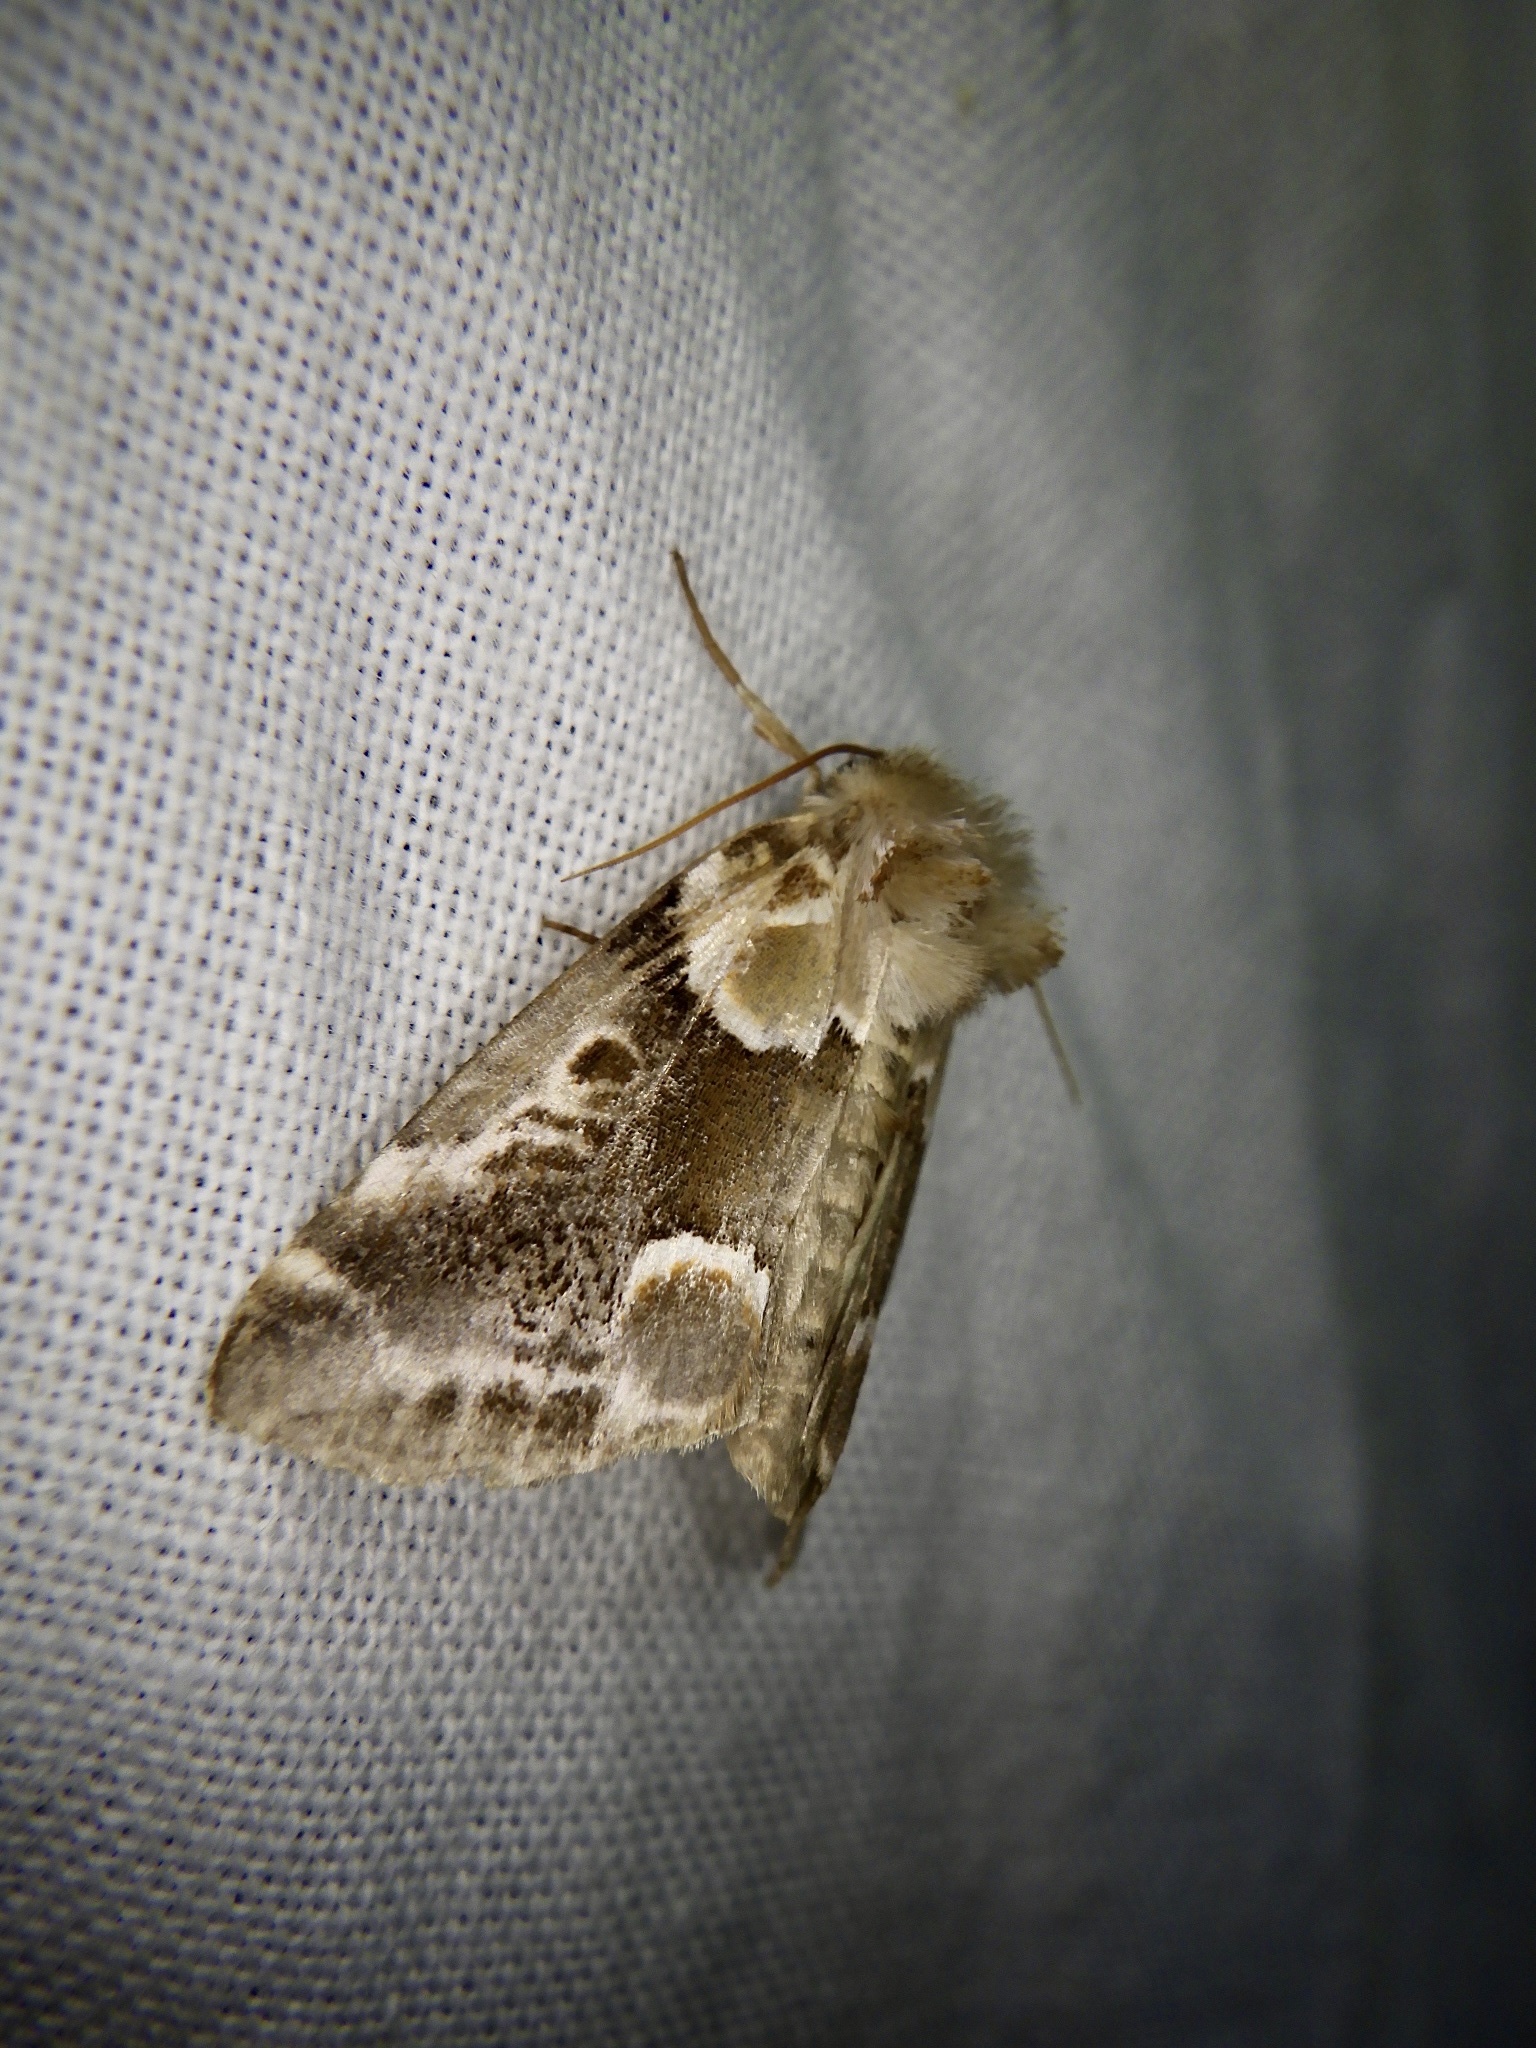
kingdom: Animalia
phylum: Arthropoda
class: Insecta
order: Lepidoptera
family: Drepanidae
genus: Habrosyne
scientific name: Habrosyne aurorina
